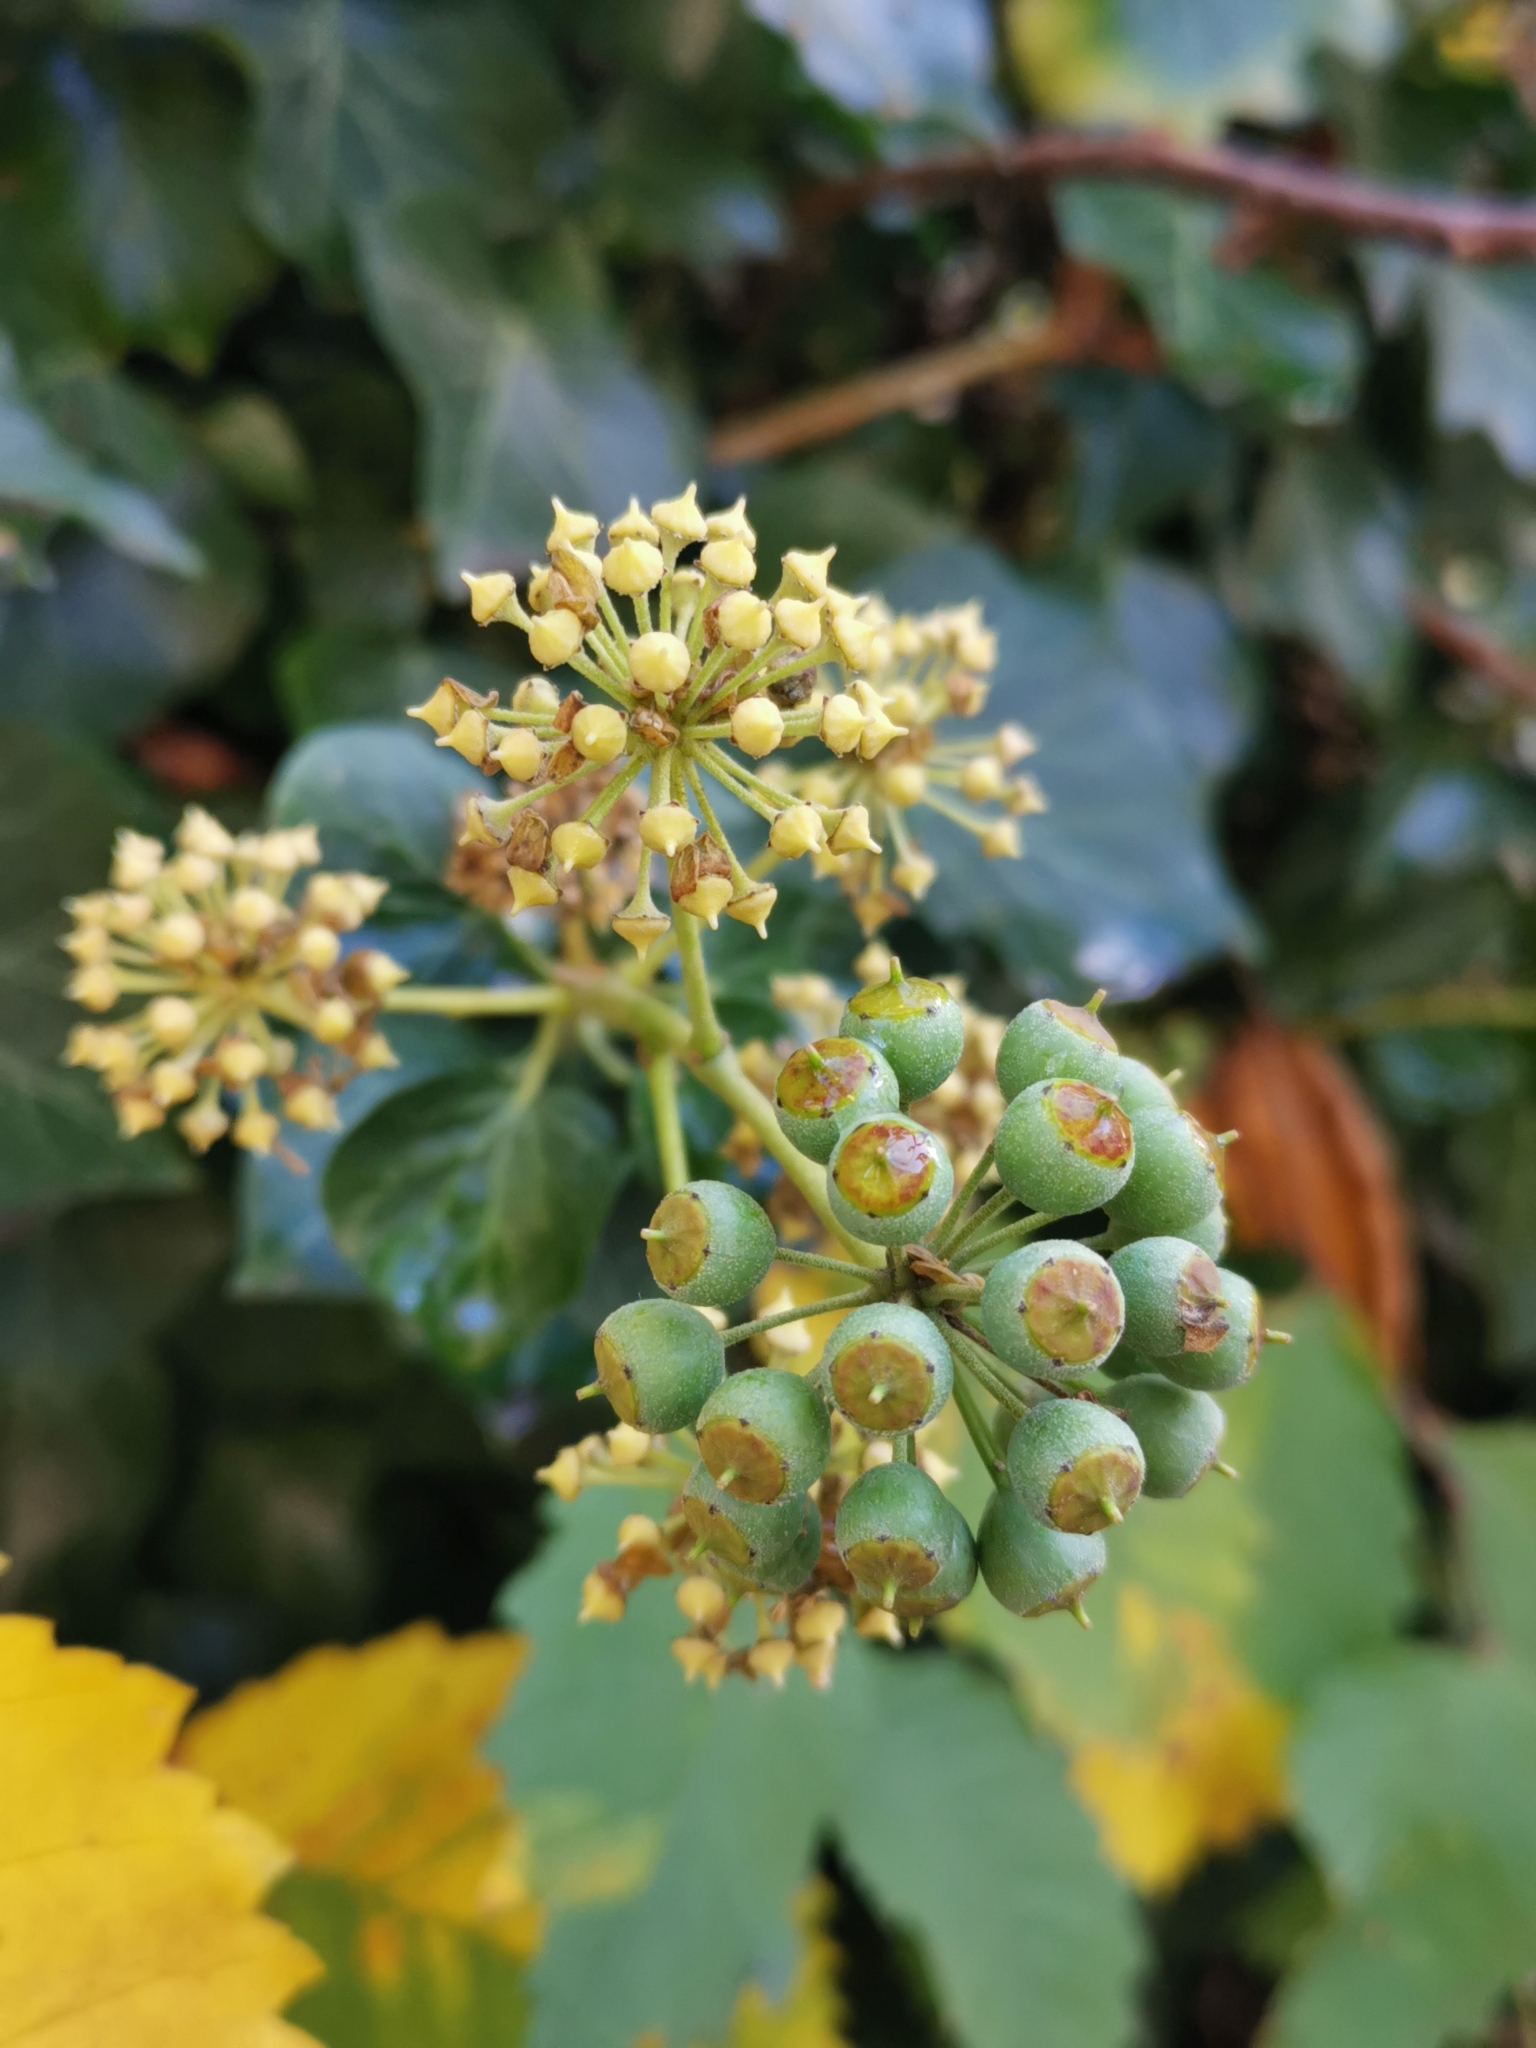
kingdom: Plantae
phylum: Tracheophyta
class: Magnoliopsida
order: Apiales
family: Araliaceae
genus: Hedera
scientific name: Hedera helix
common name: Ivy
